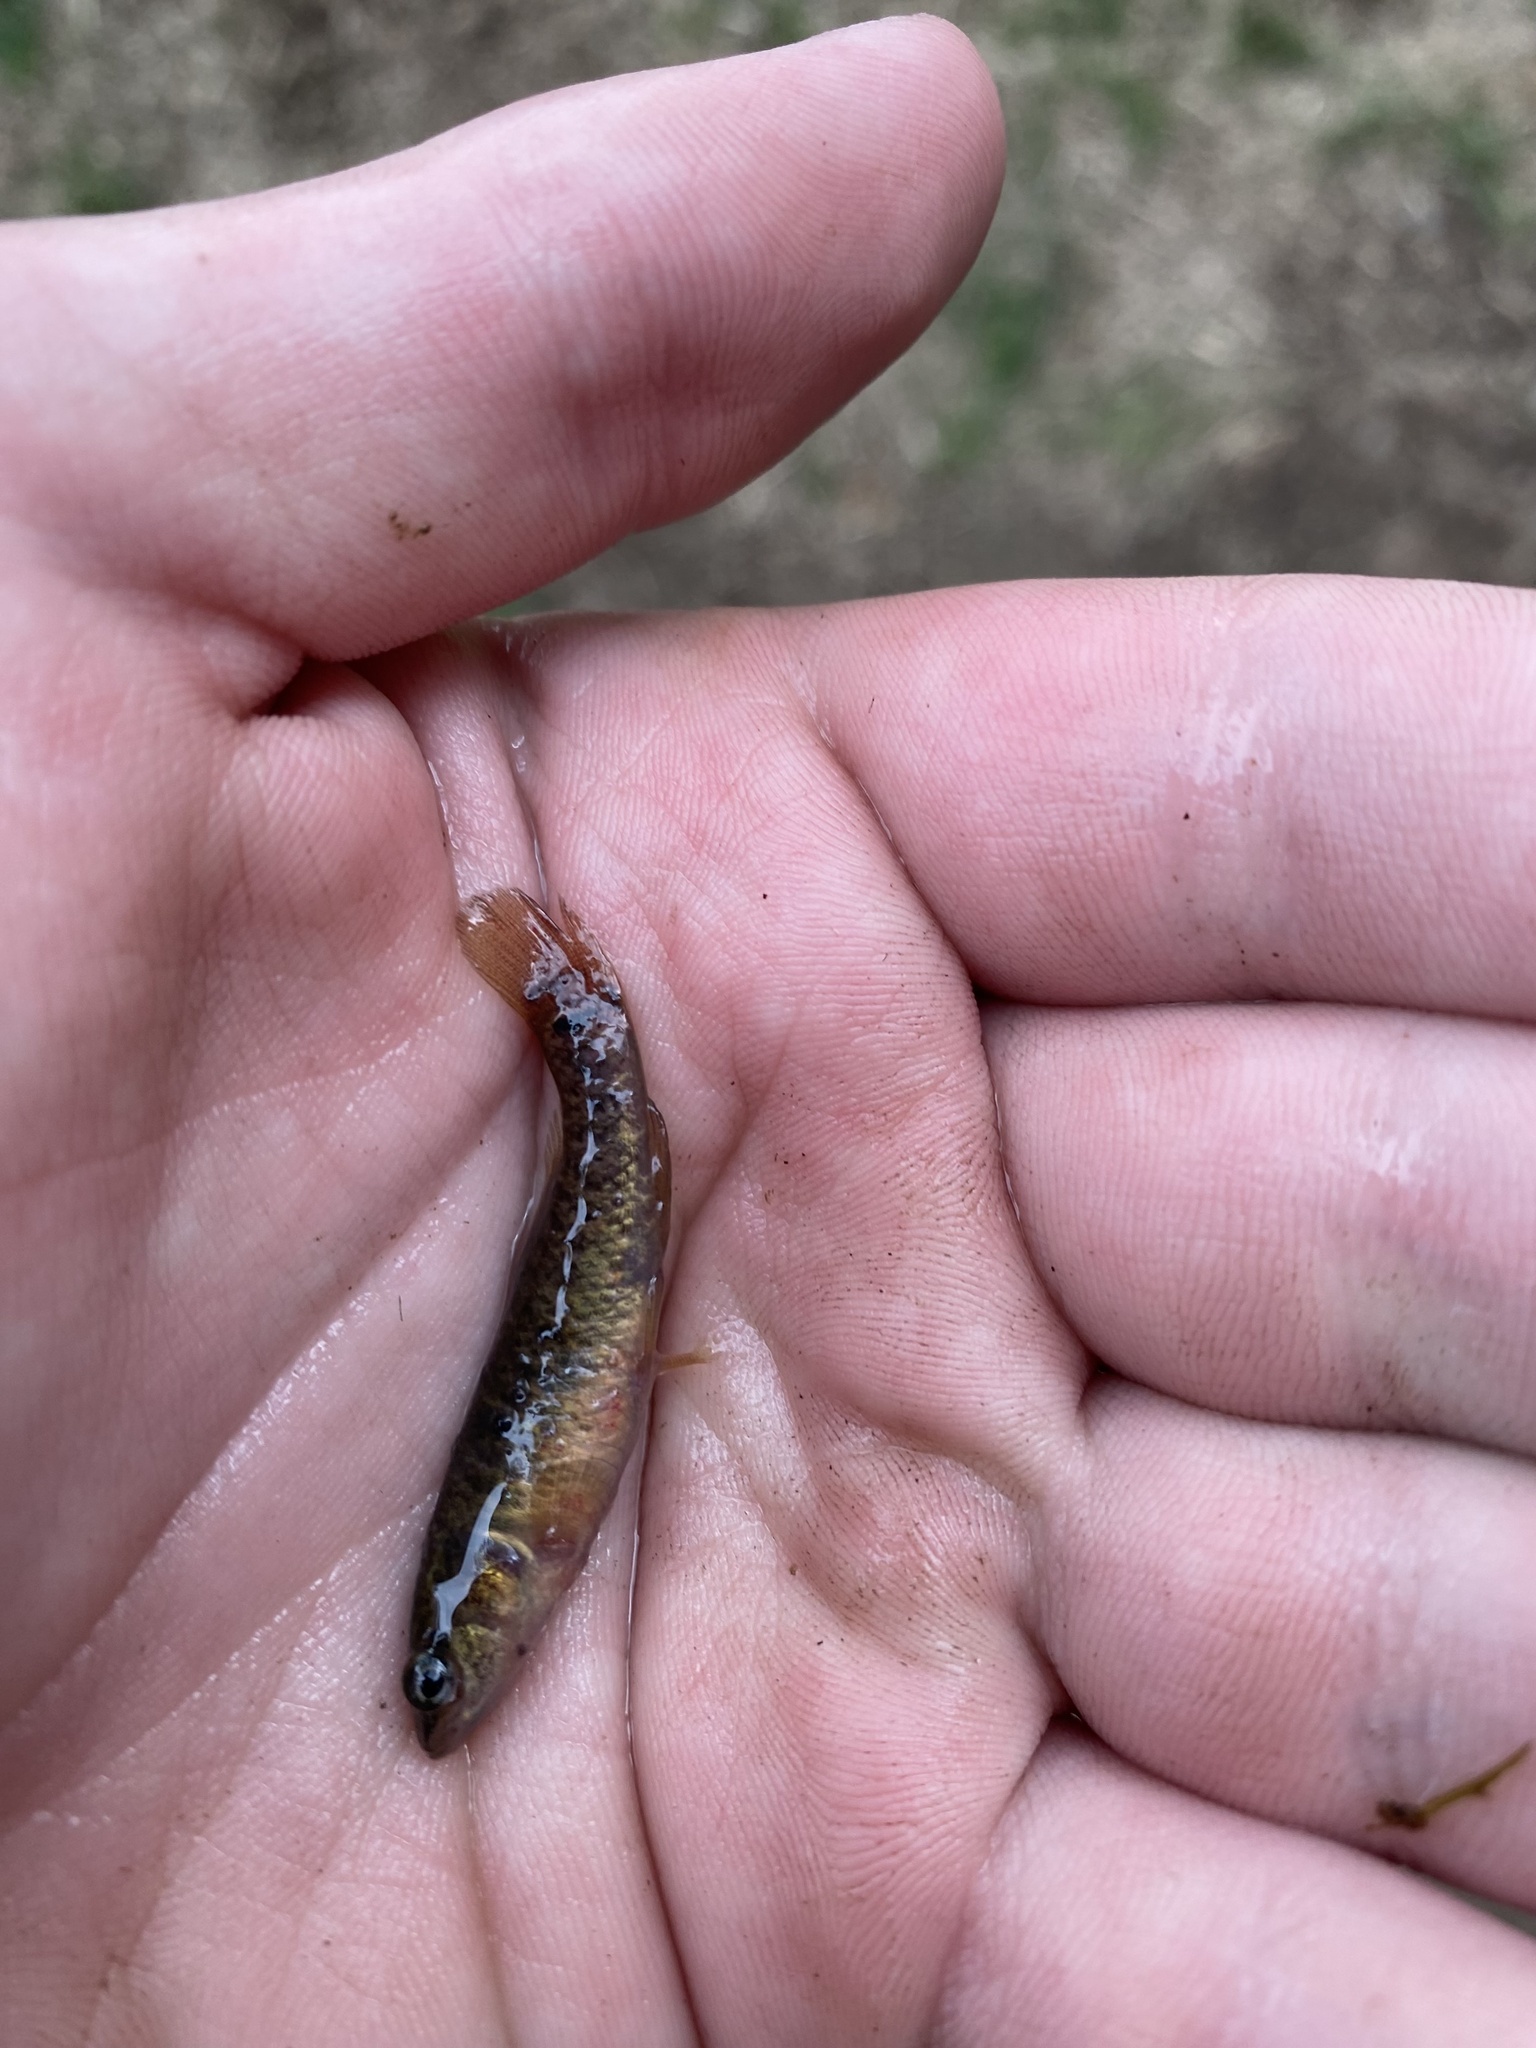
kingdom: Animalia
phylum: Chordata
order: Esociformes
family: Umbridae
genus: Umbra
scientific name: Umbra limi
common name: Central mudminnow
